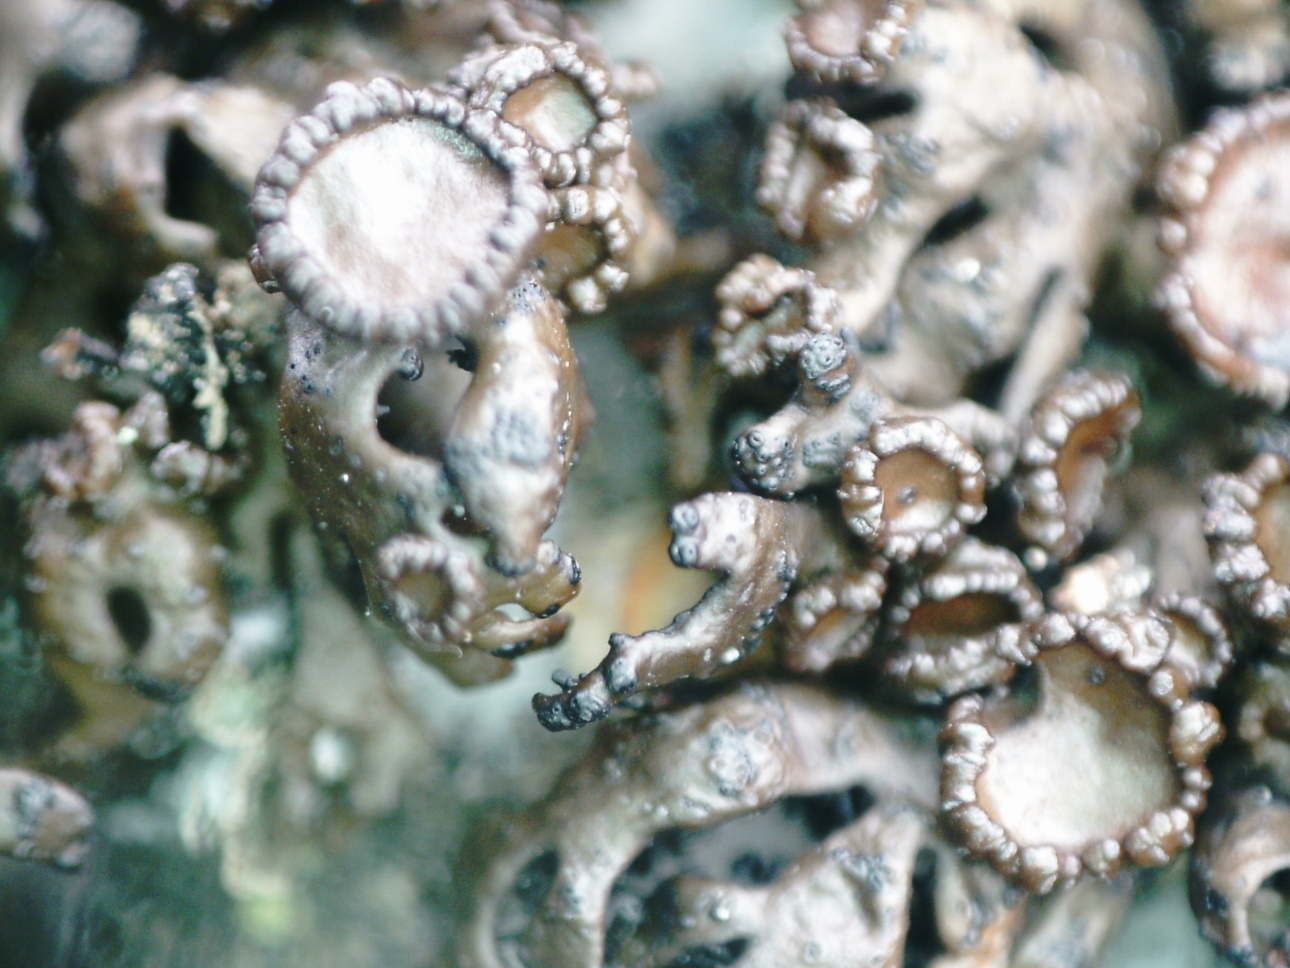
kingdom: Fungi
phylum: Ascomycota
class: Lecanoromycetes
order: Lecanorales
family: Parmeliaceae
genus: Melanelia
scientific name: Melanelia stygia
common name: Alpine camouflage lichen
